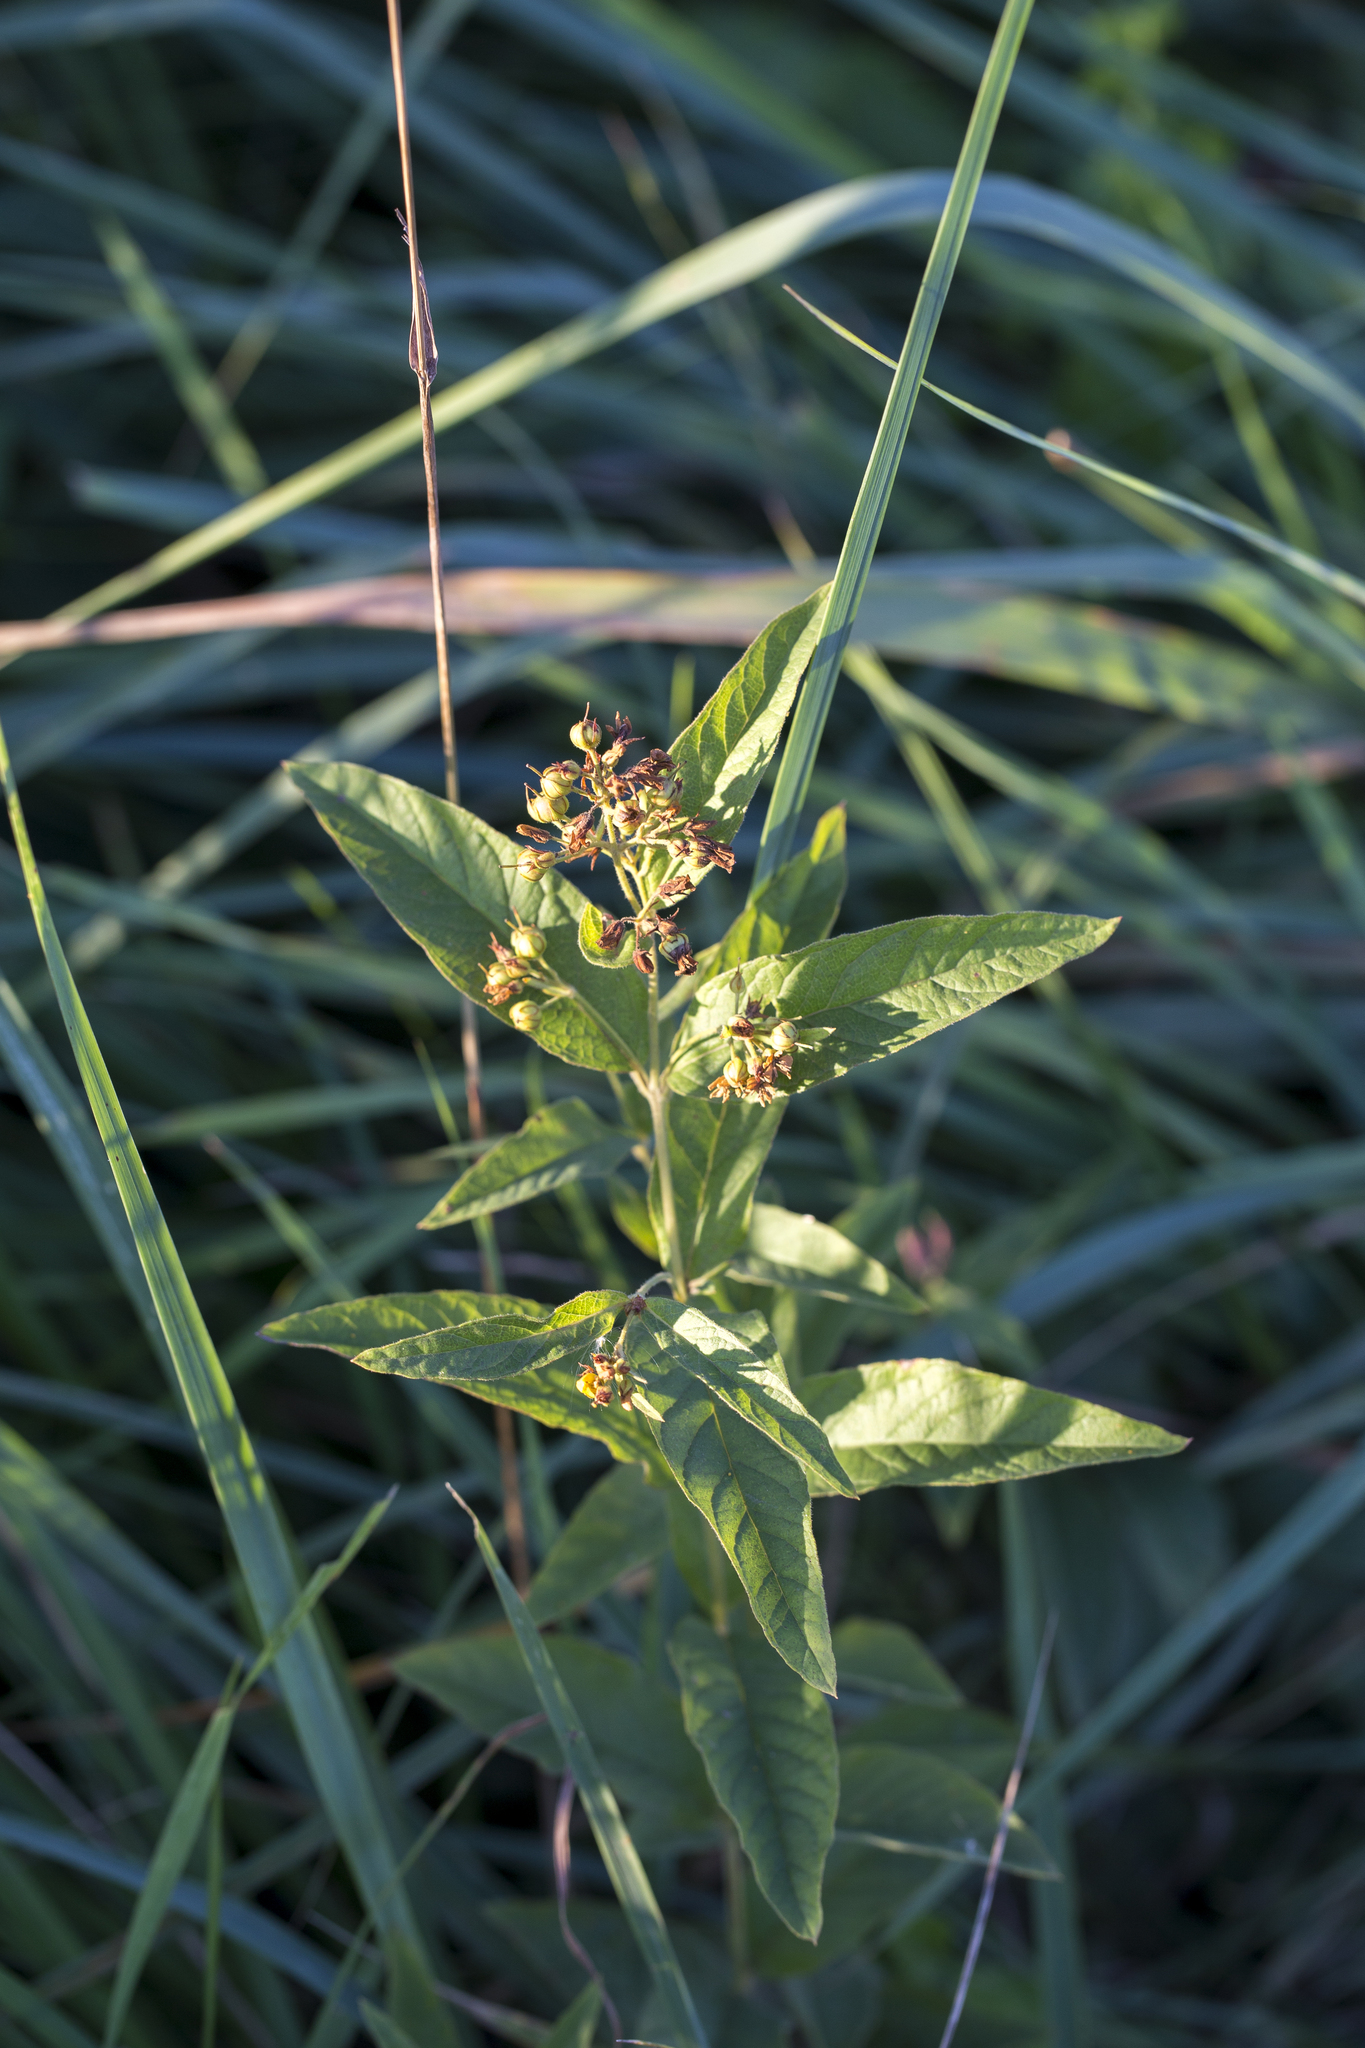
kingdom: Plantae
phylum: Tracheophyta
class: Magnoliopsida
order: Ericales
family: Primulaceae
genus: Lysimachia
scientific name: Lysimachia vulgaris
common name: Yellow loosestrife
